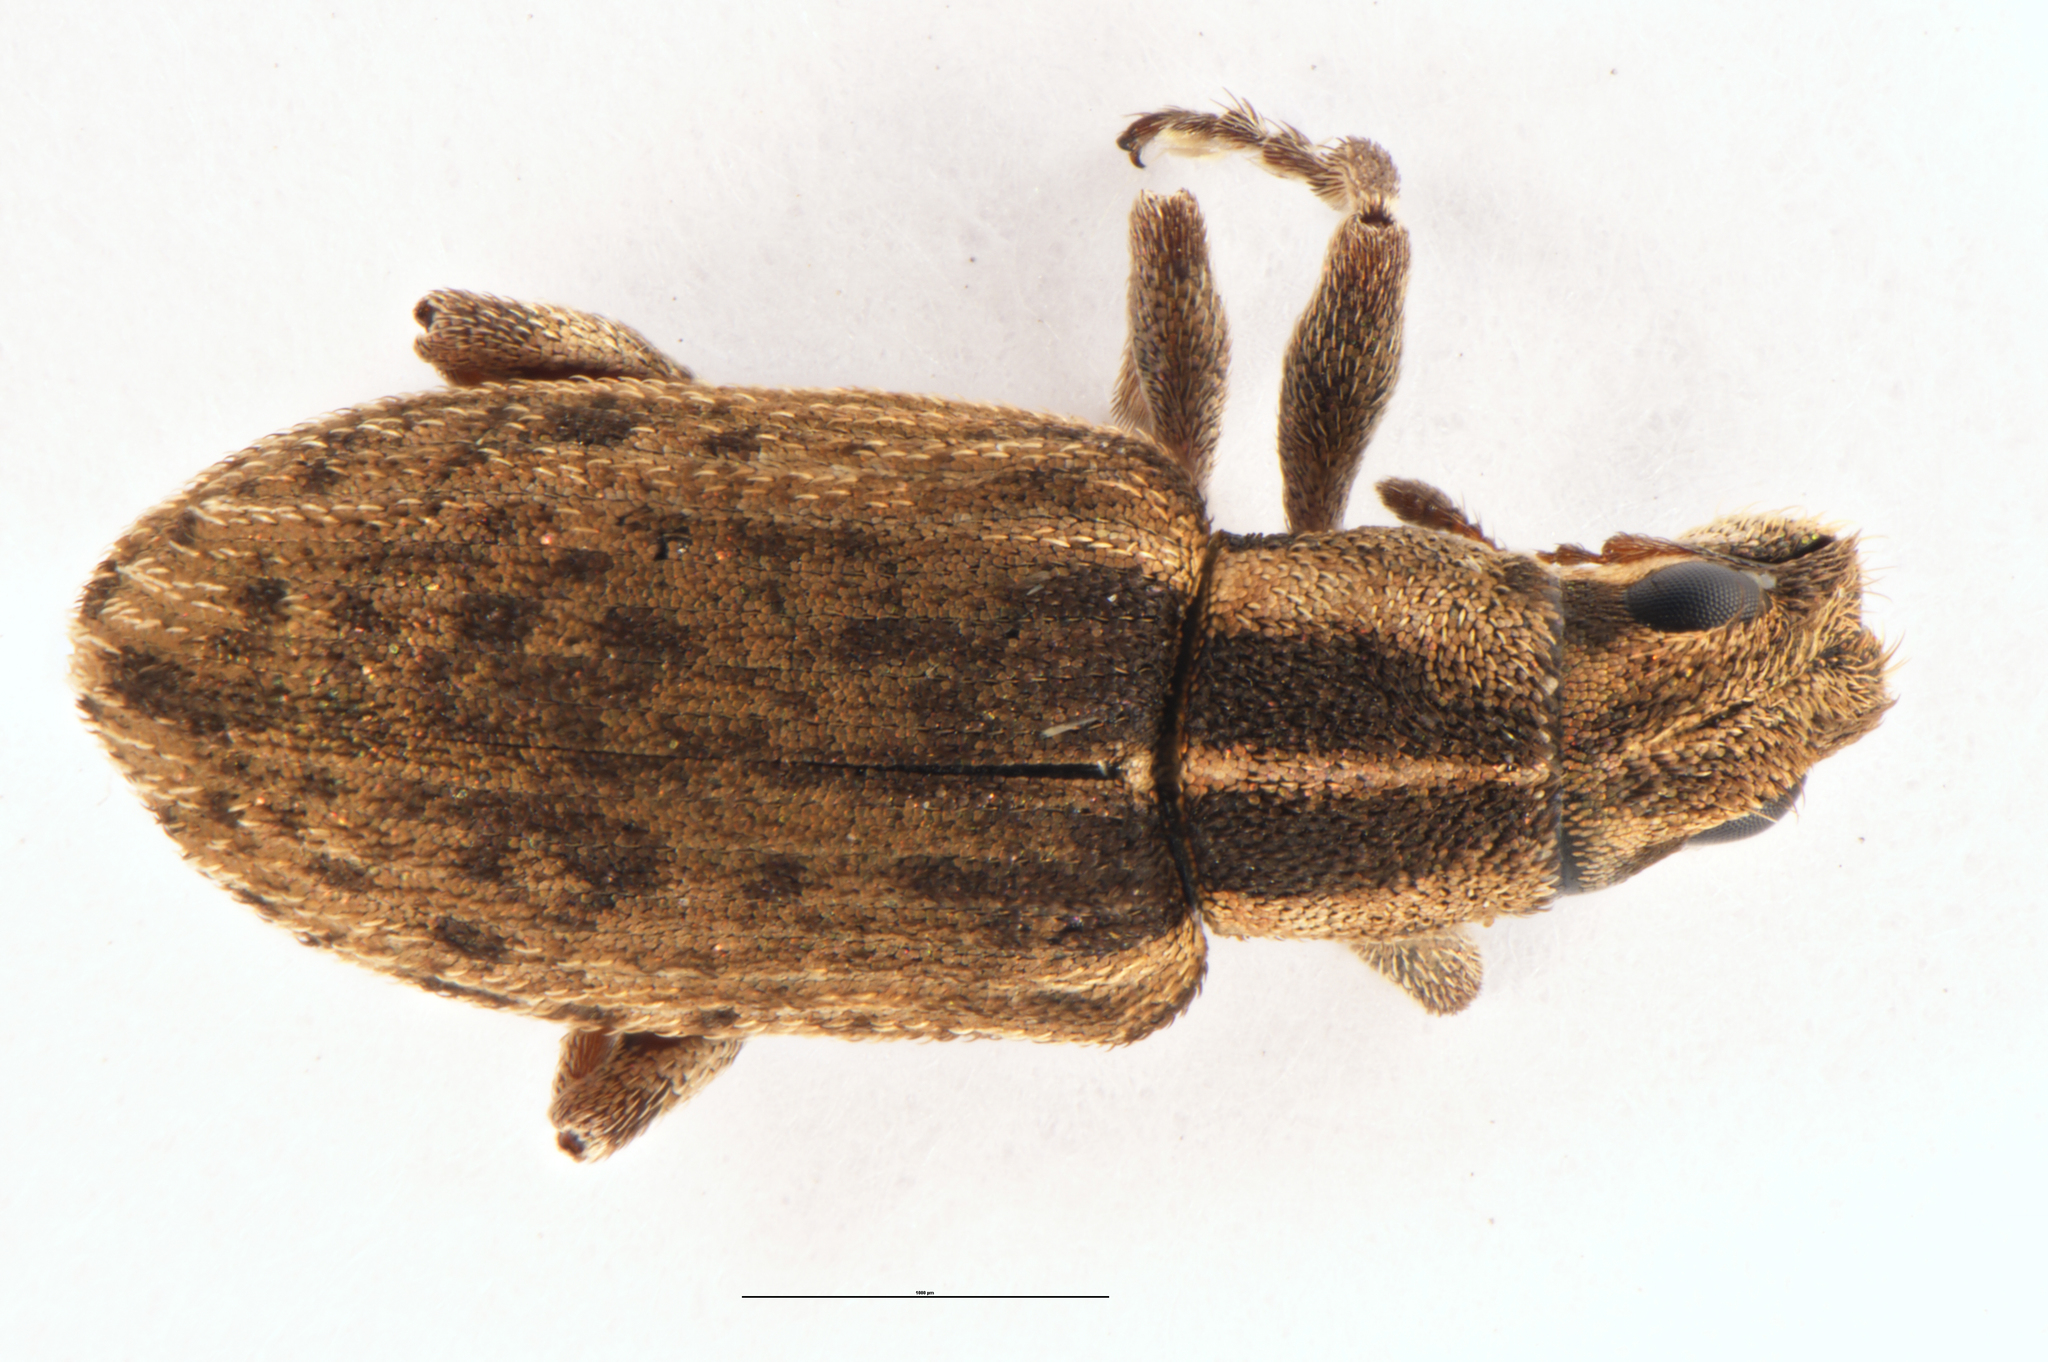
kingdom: Animalia
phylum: Arthropoda
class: Insecta
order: Coleoptera
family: Curculionidae
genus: Sitona
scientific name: Sitona discoideus
